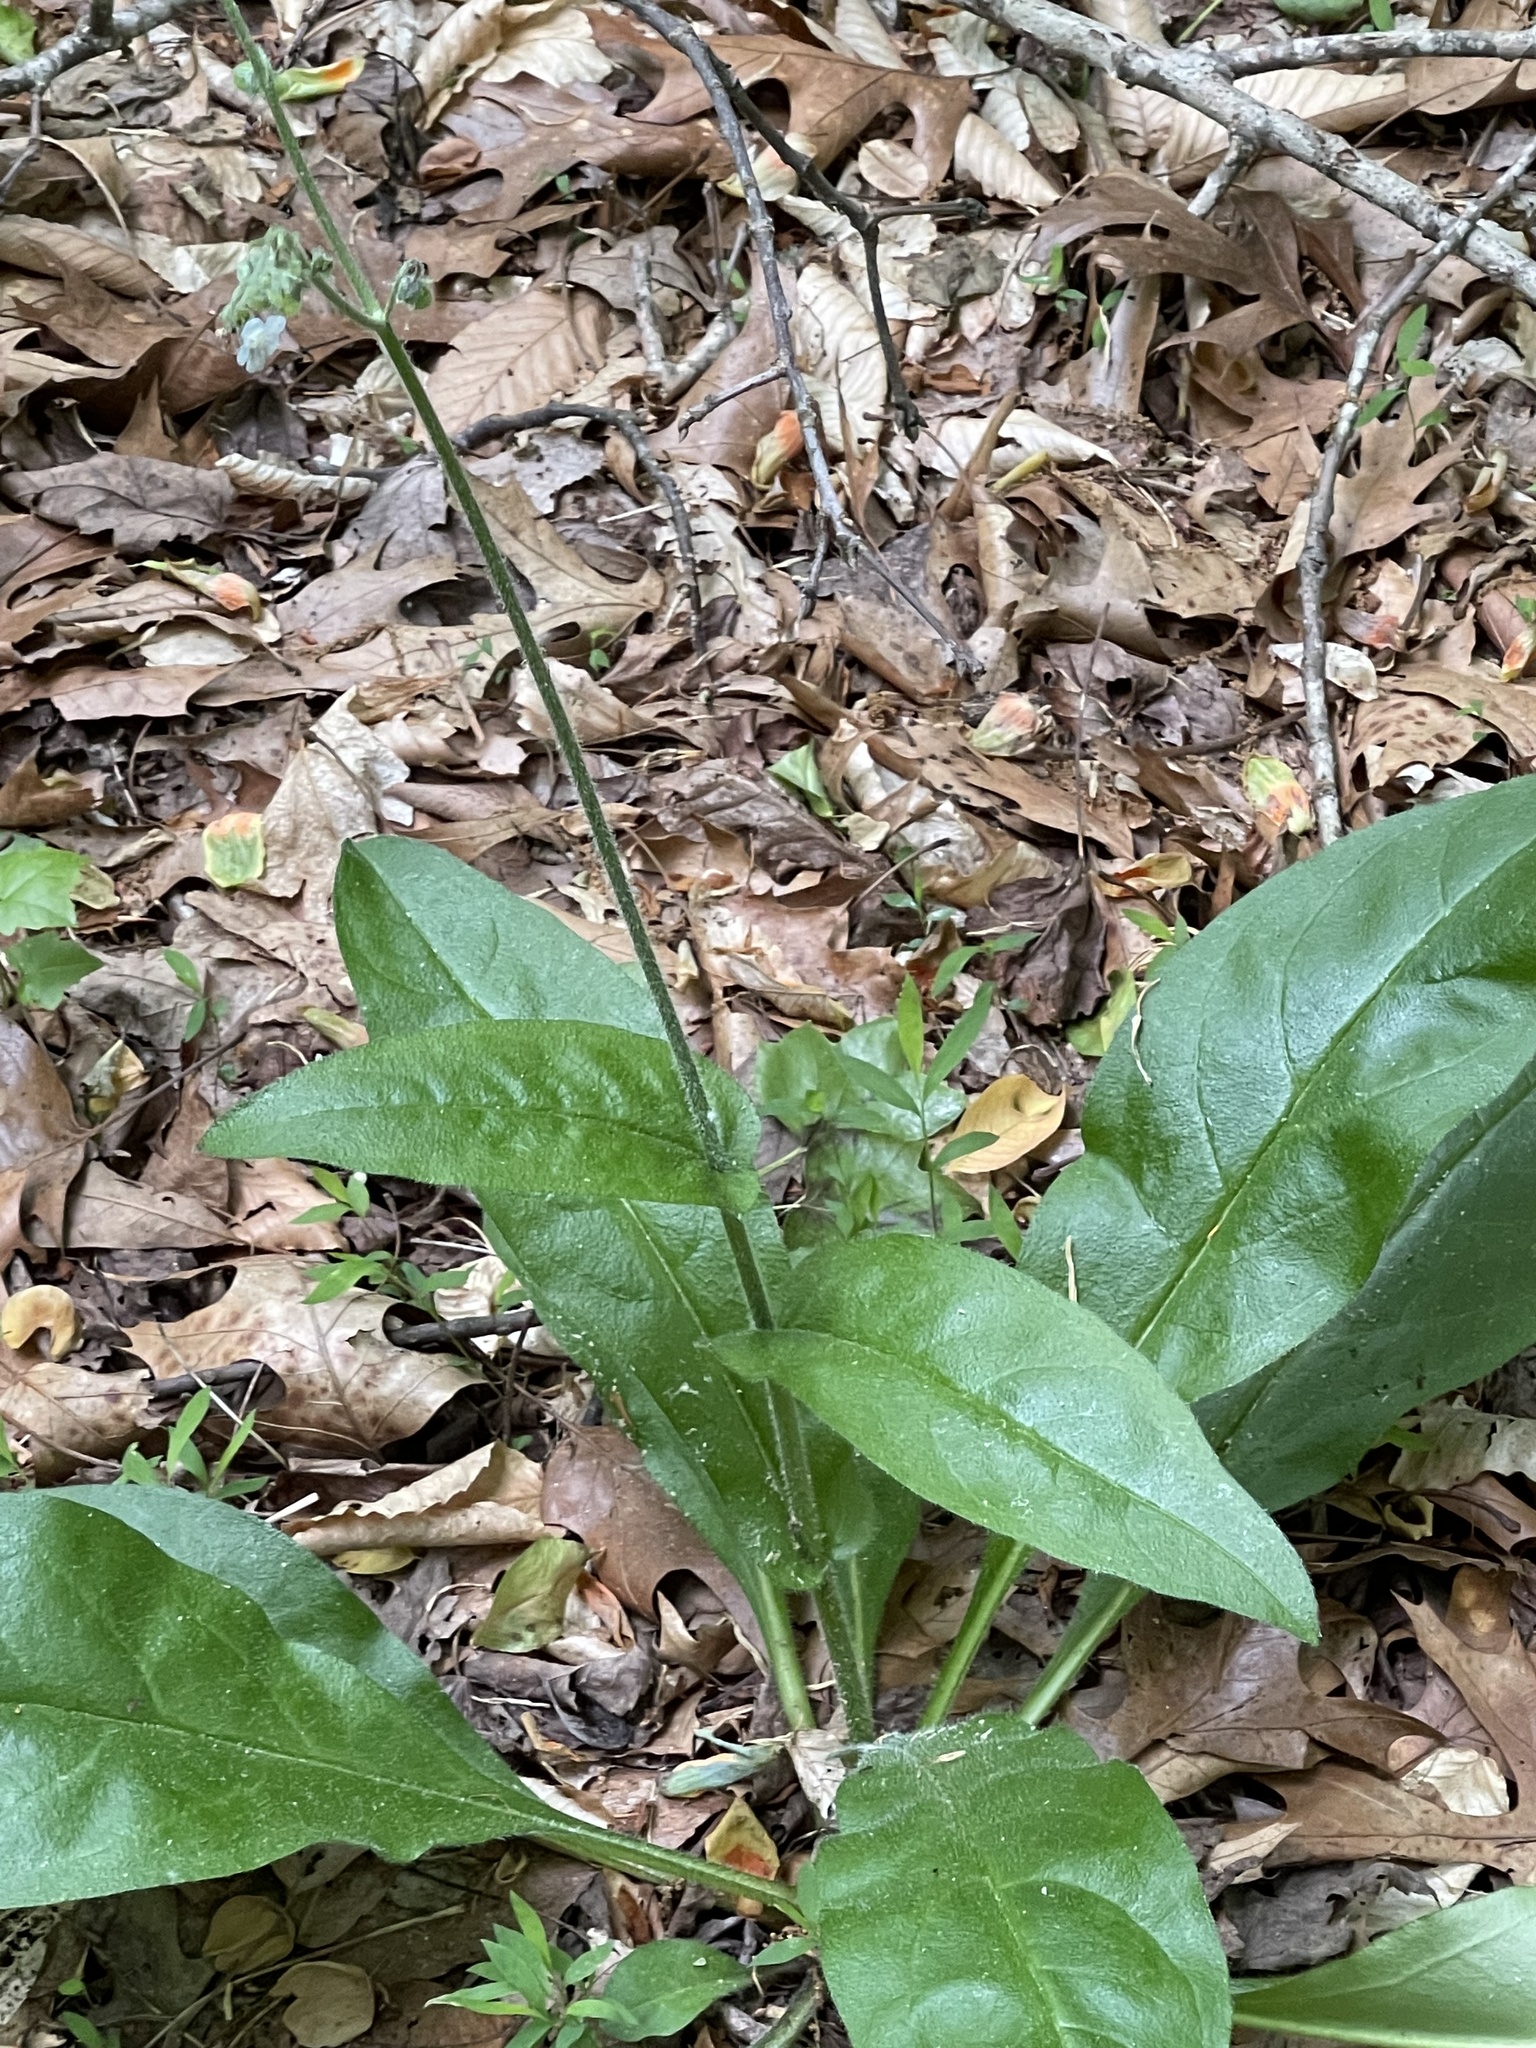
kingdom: Plantae
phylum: Tracheophyta
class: Magnoliopsida
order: Boraginales
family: Boraginaceae
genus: Andersonglossum
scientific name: Andersonglossum virginianum
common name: Wild comfrey
